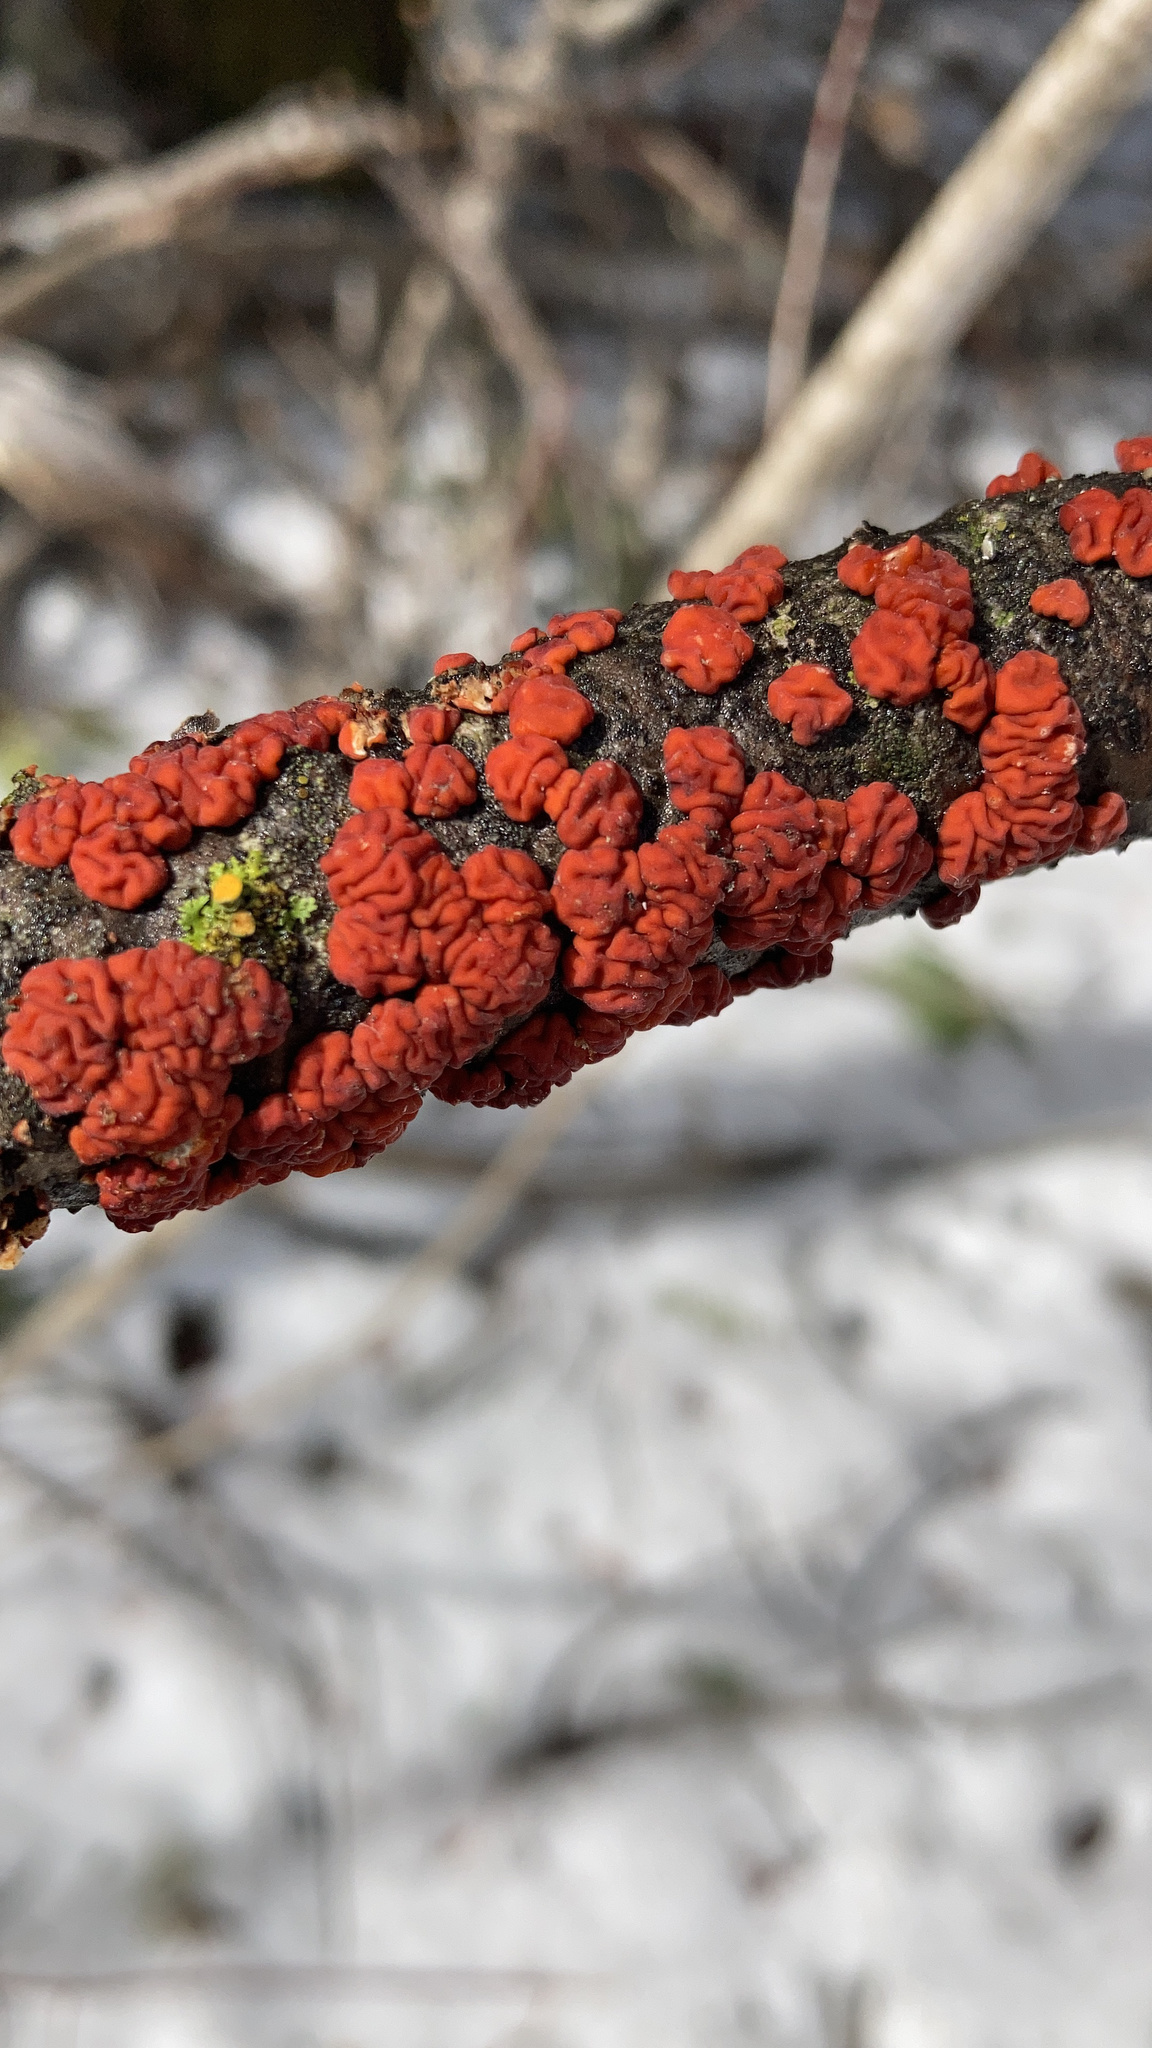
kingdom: Fungi
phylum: Basidiomycota
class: Agaricomycetes
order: Russulales
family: Peniophoraceae
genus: Peniophora
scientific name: Peniophora rufa
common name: Red tree brain fungus
